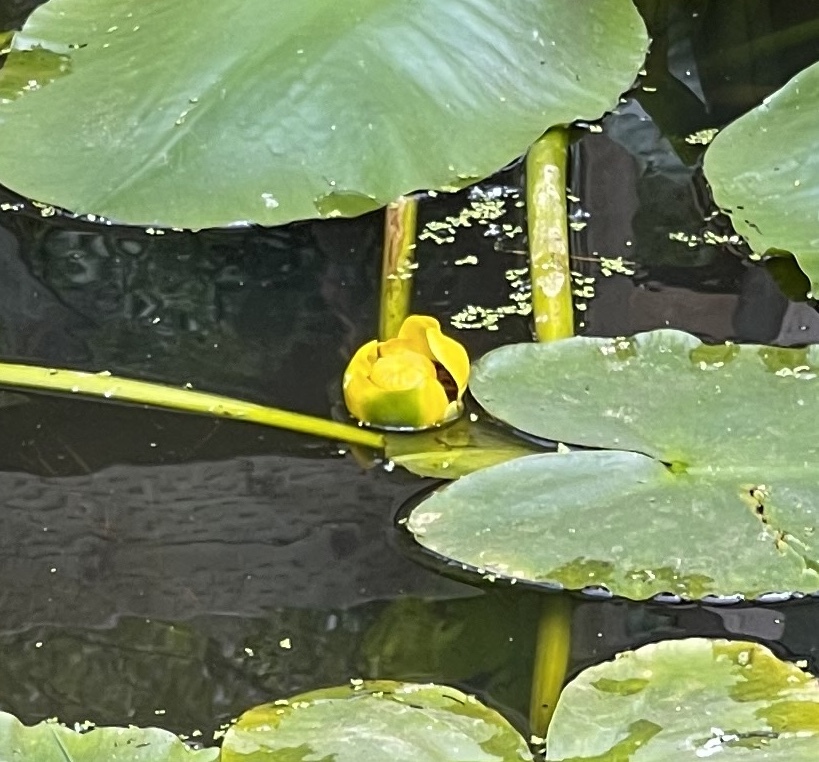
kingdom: Plantae
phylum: Tracheophyta
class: Magnoliopsida
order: Nymphaeales
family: Nymphaeaceae
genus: Nuphar
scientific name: Nuphar polysepala
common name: Rocky mountain cow-lily
